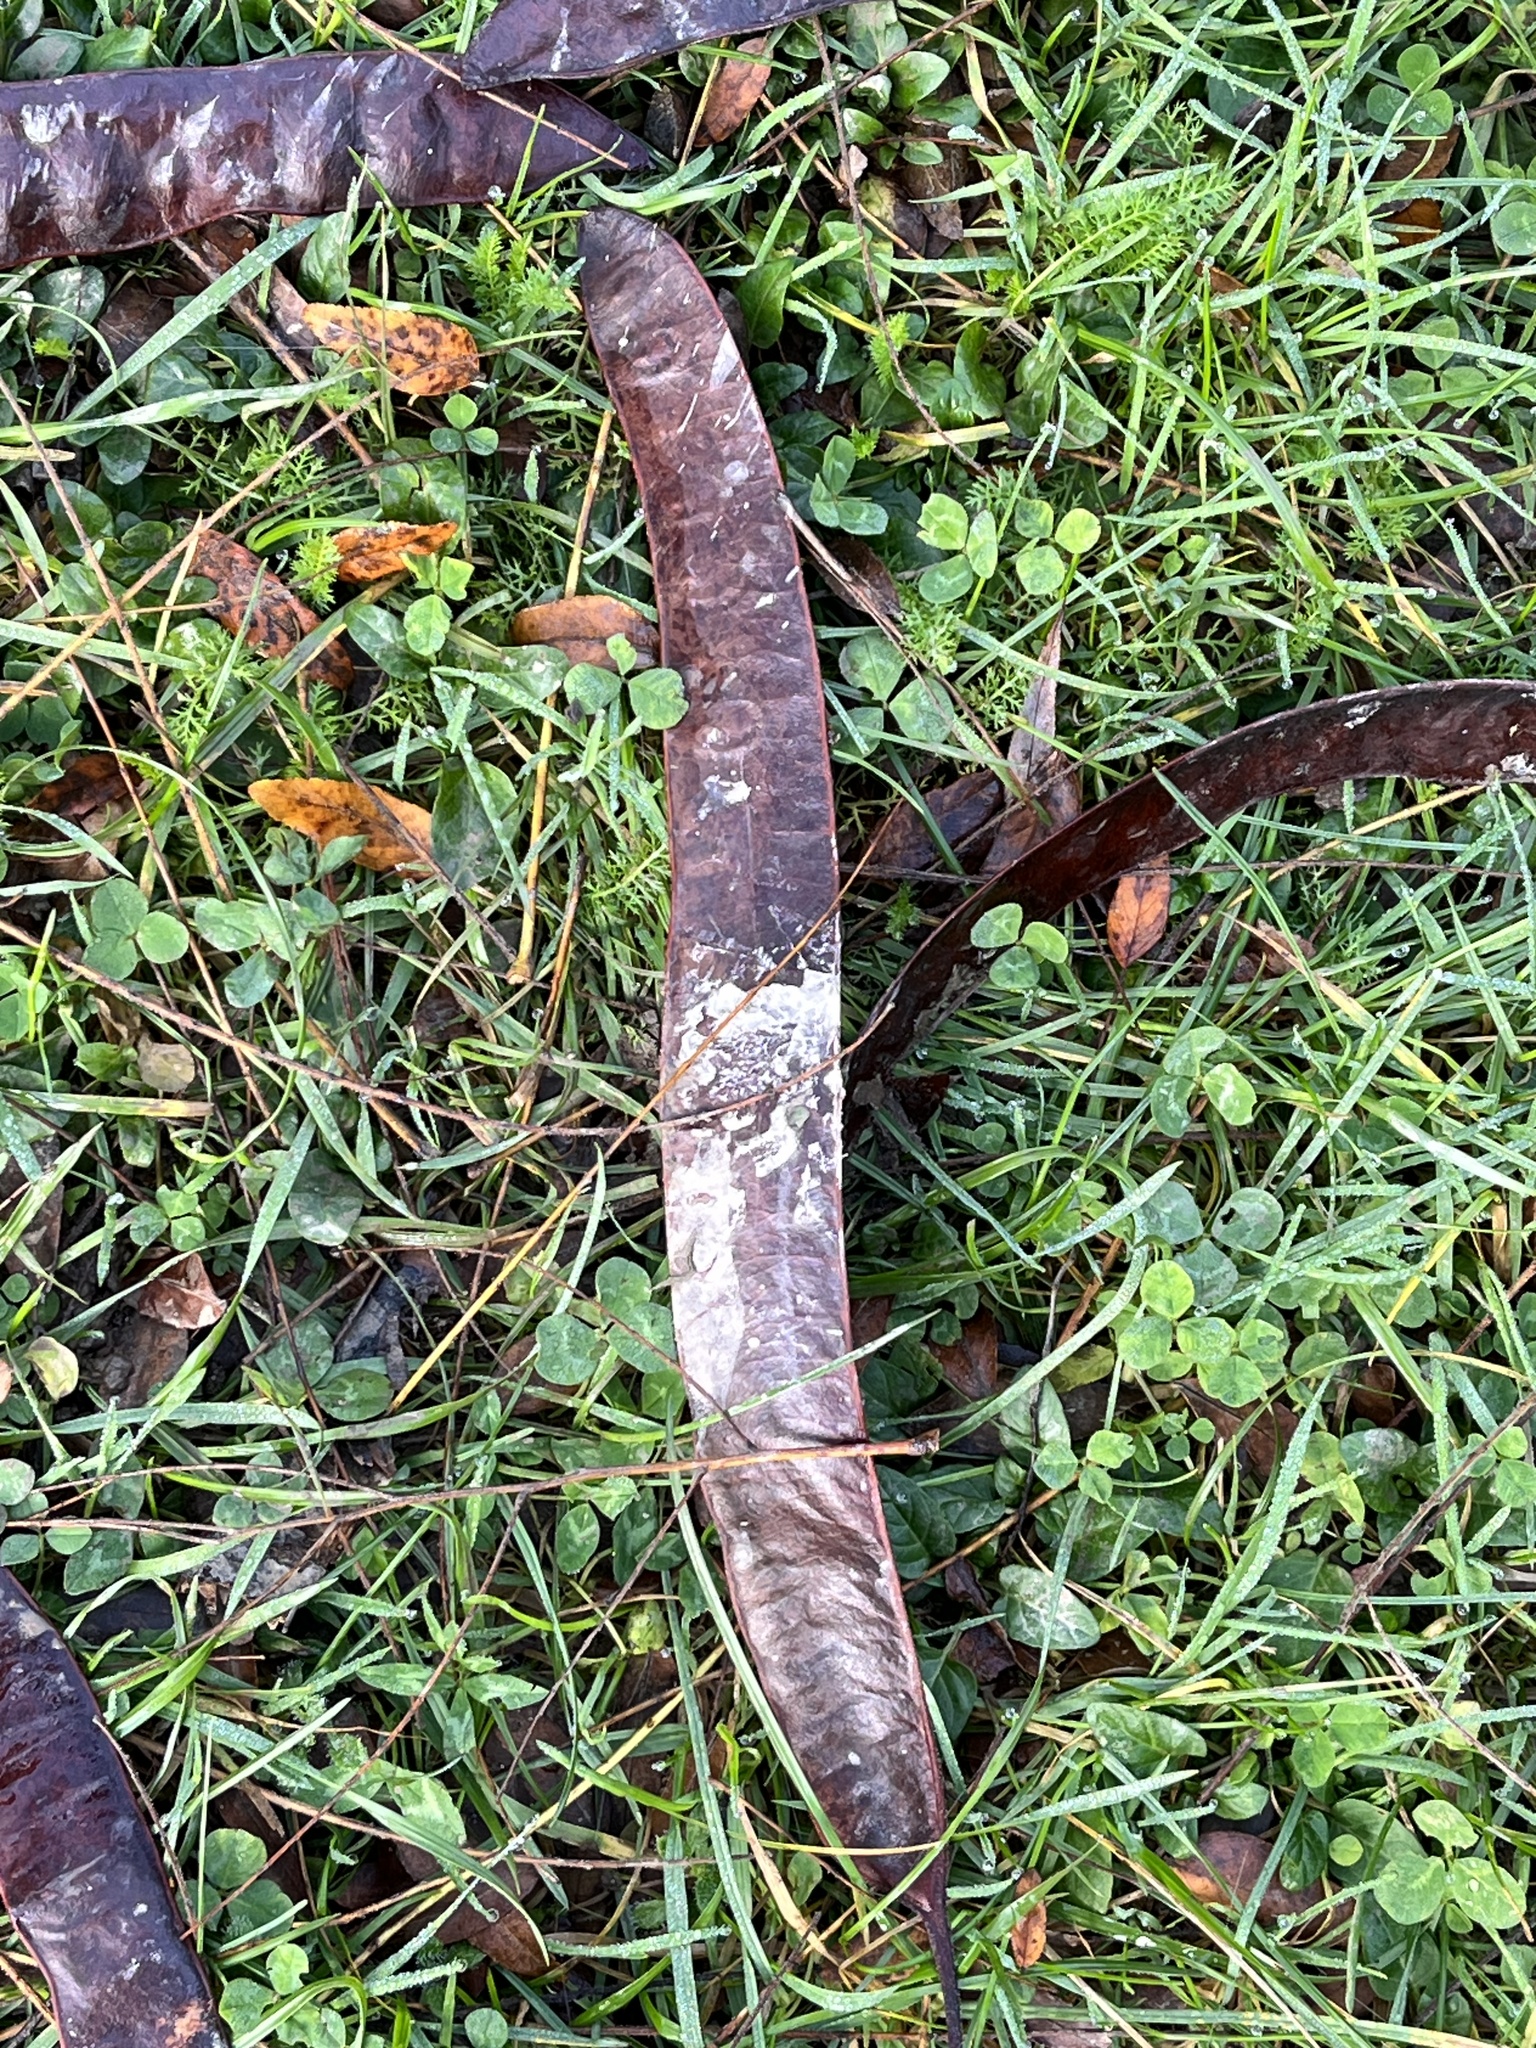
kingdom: Plantae
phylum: Tracheophyta
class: Magnoliopsida
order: Fabales
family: Fabaceae
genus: Gleditsia
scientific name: Gleditsia triacanthos
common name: Common honeylocust
